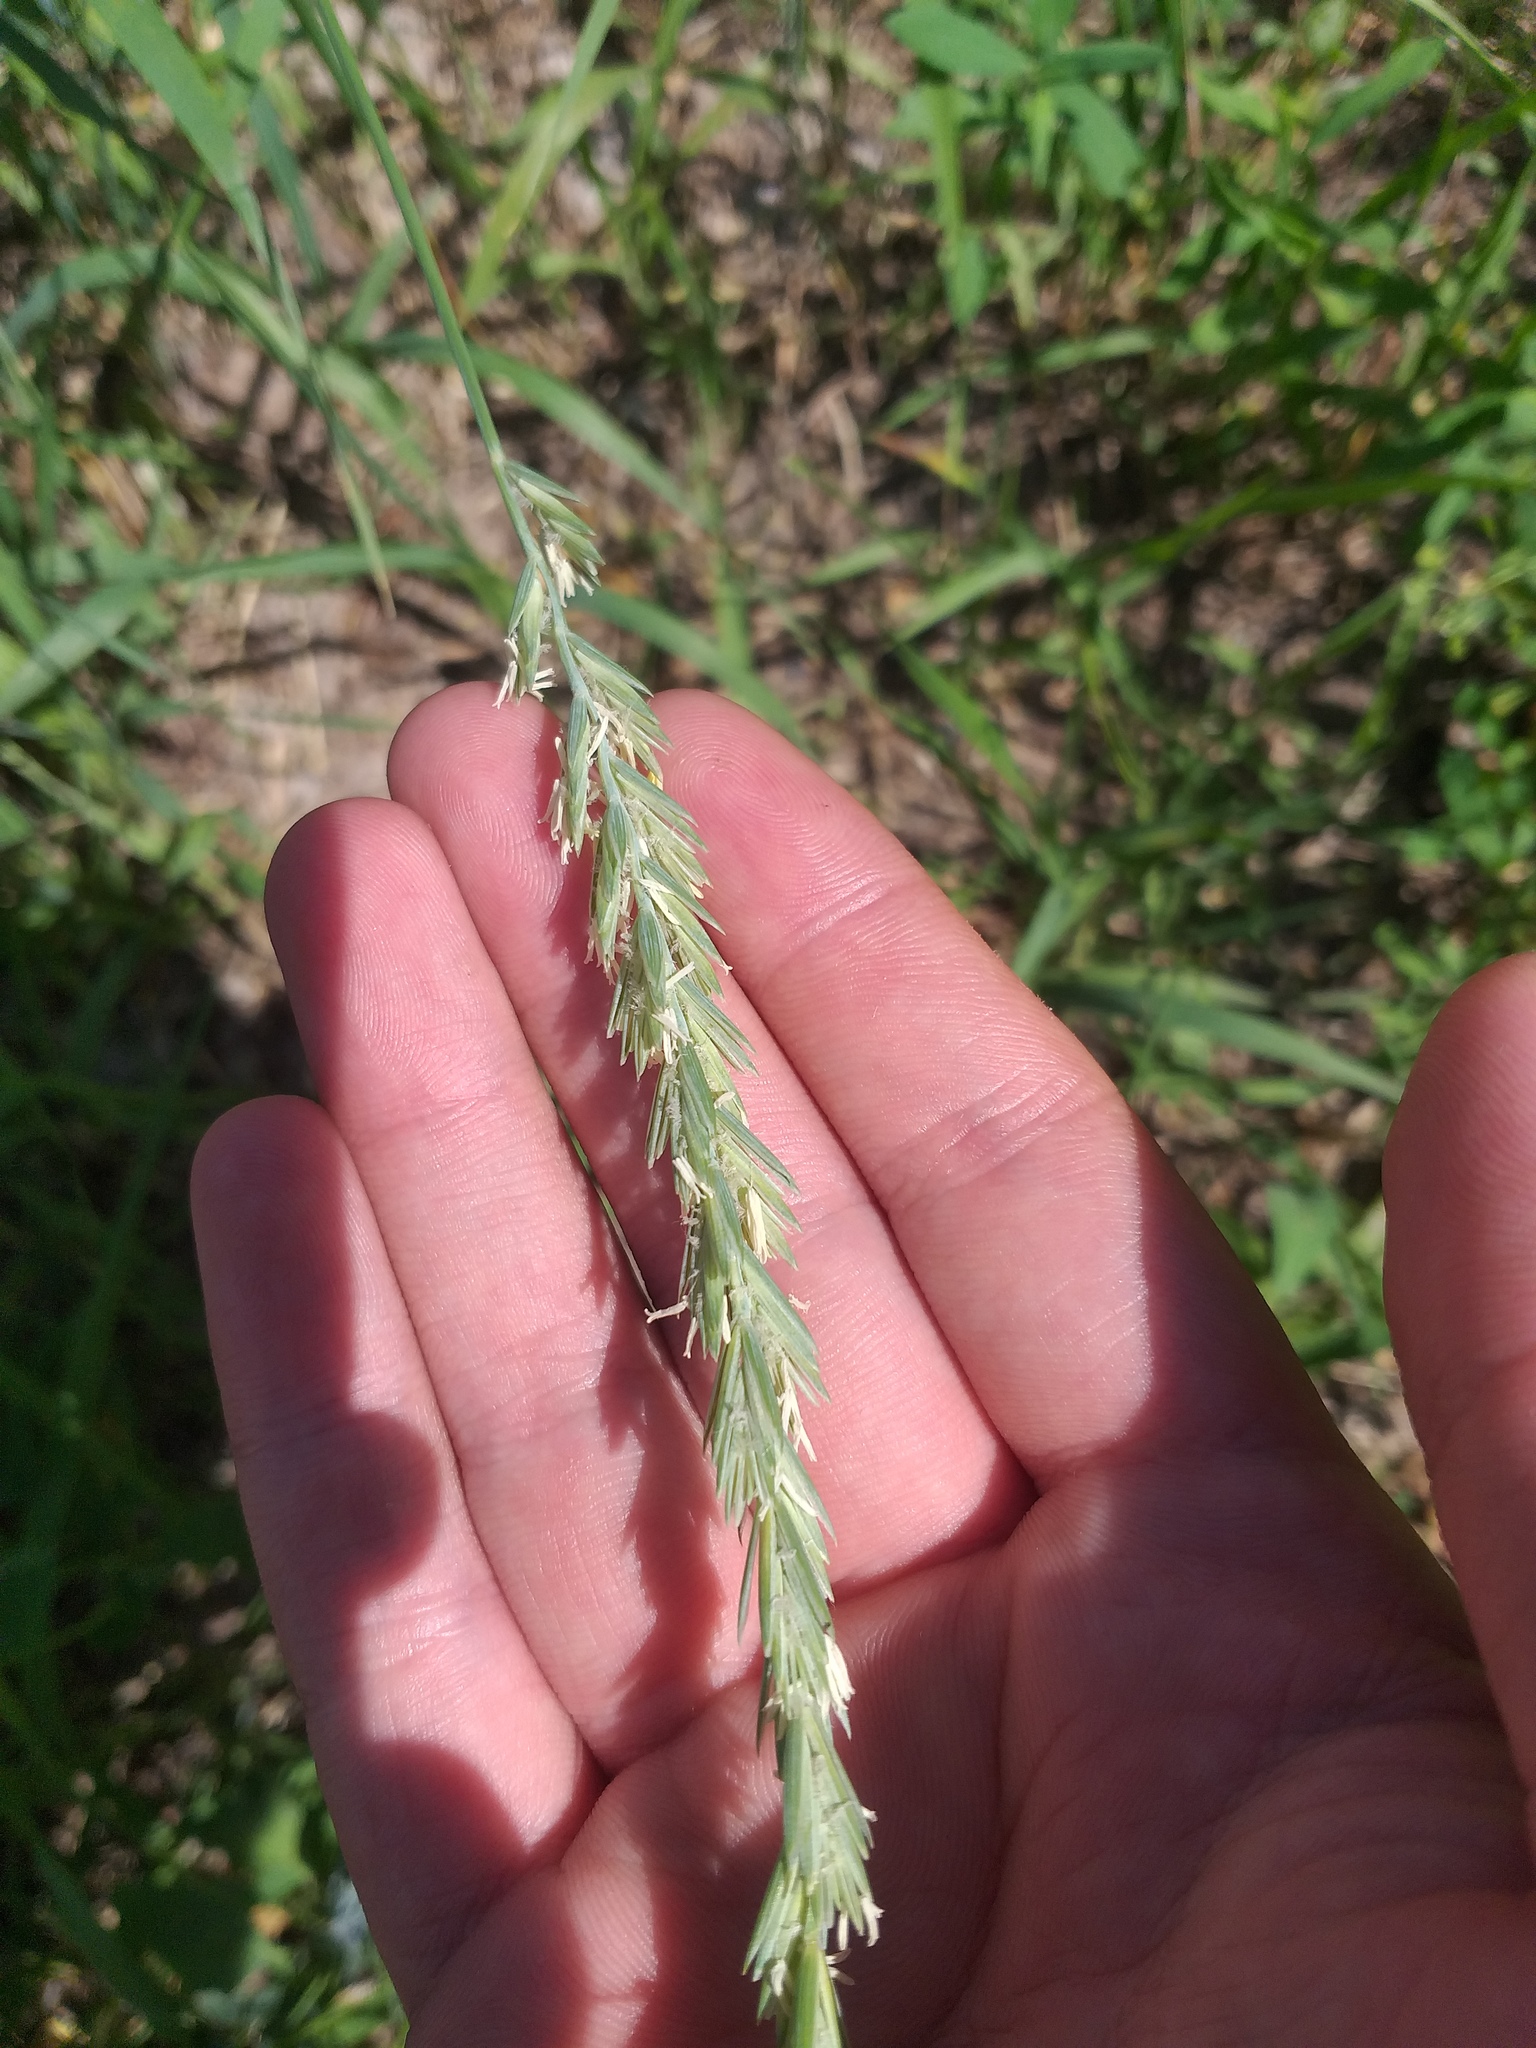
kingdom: Plantae
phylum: Tracheophyta
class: Liliopsida
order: Poales
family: Poaceae
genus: Elymus
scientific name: Elymus repens
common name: Quackgrass
